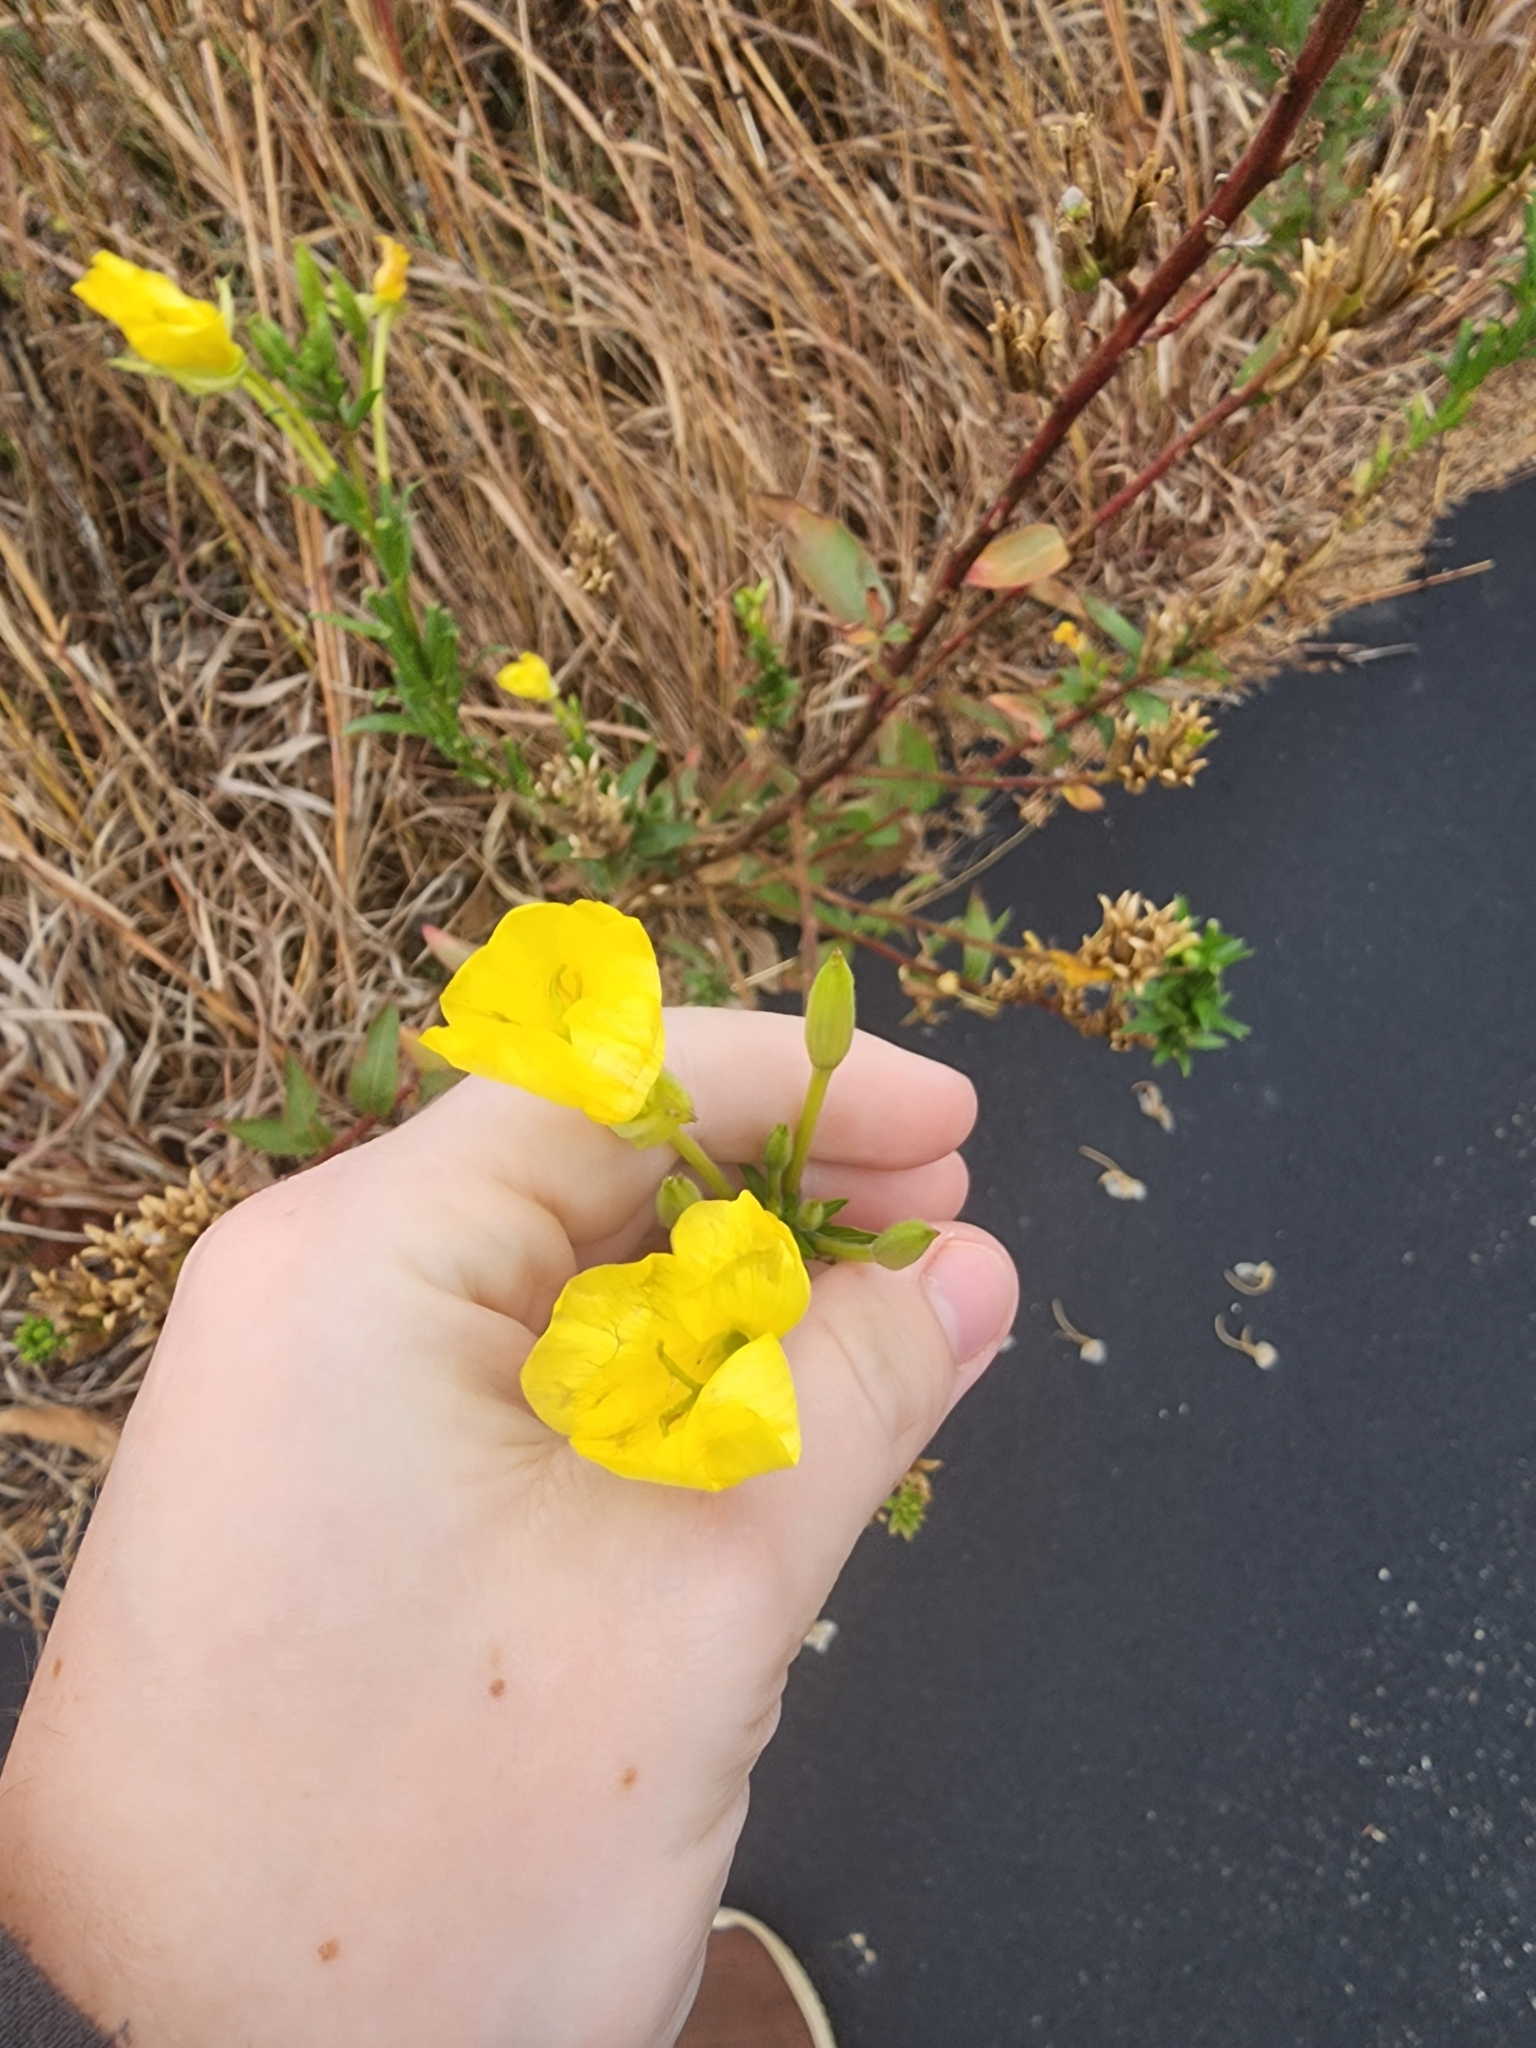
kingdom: Plantae
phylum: Tracheophyta
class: Magnoliopsida
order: Myrtales
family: Onagraceae
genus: Oenothera
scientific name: Oenothera biennis
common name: Common evening-primrose
